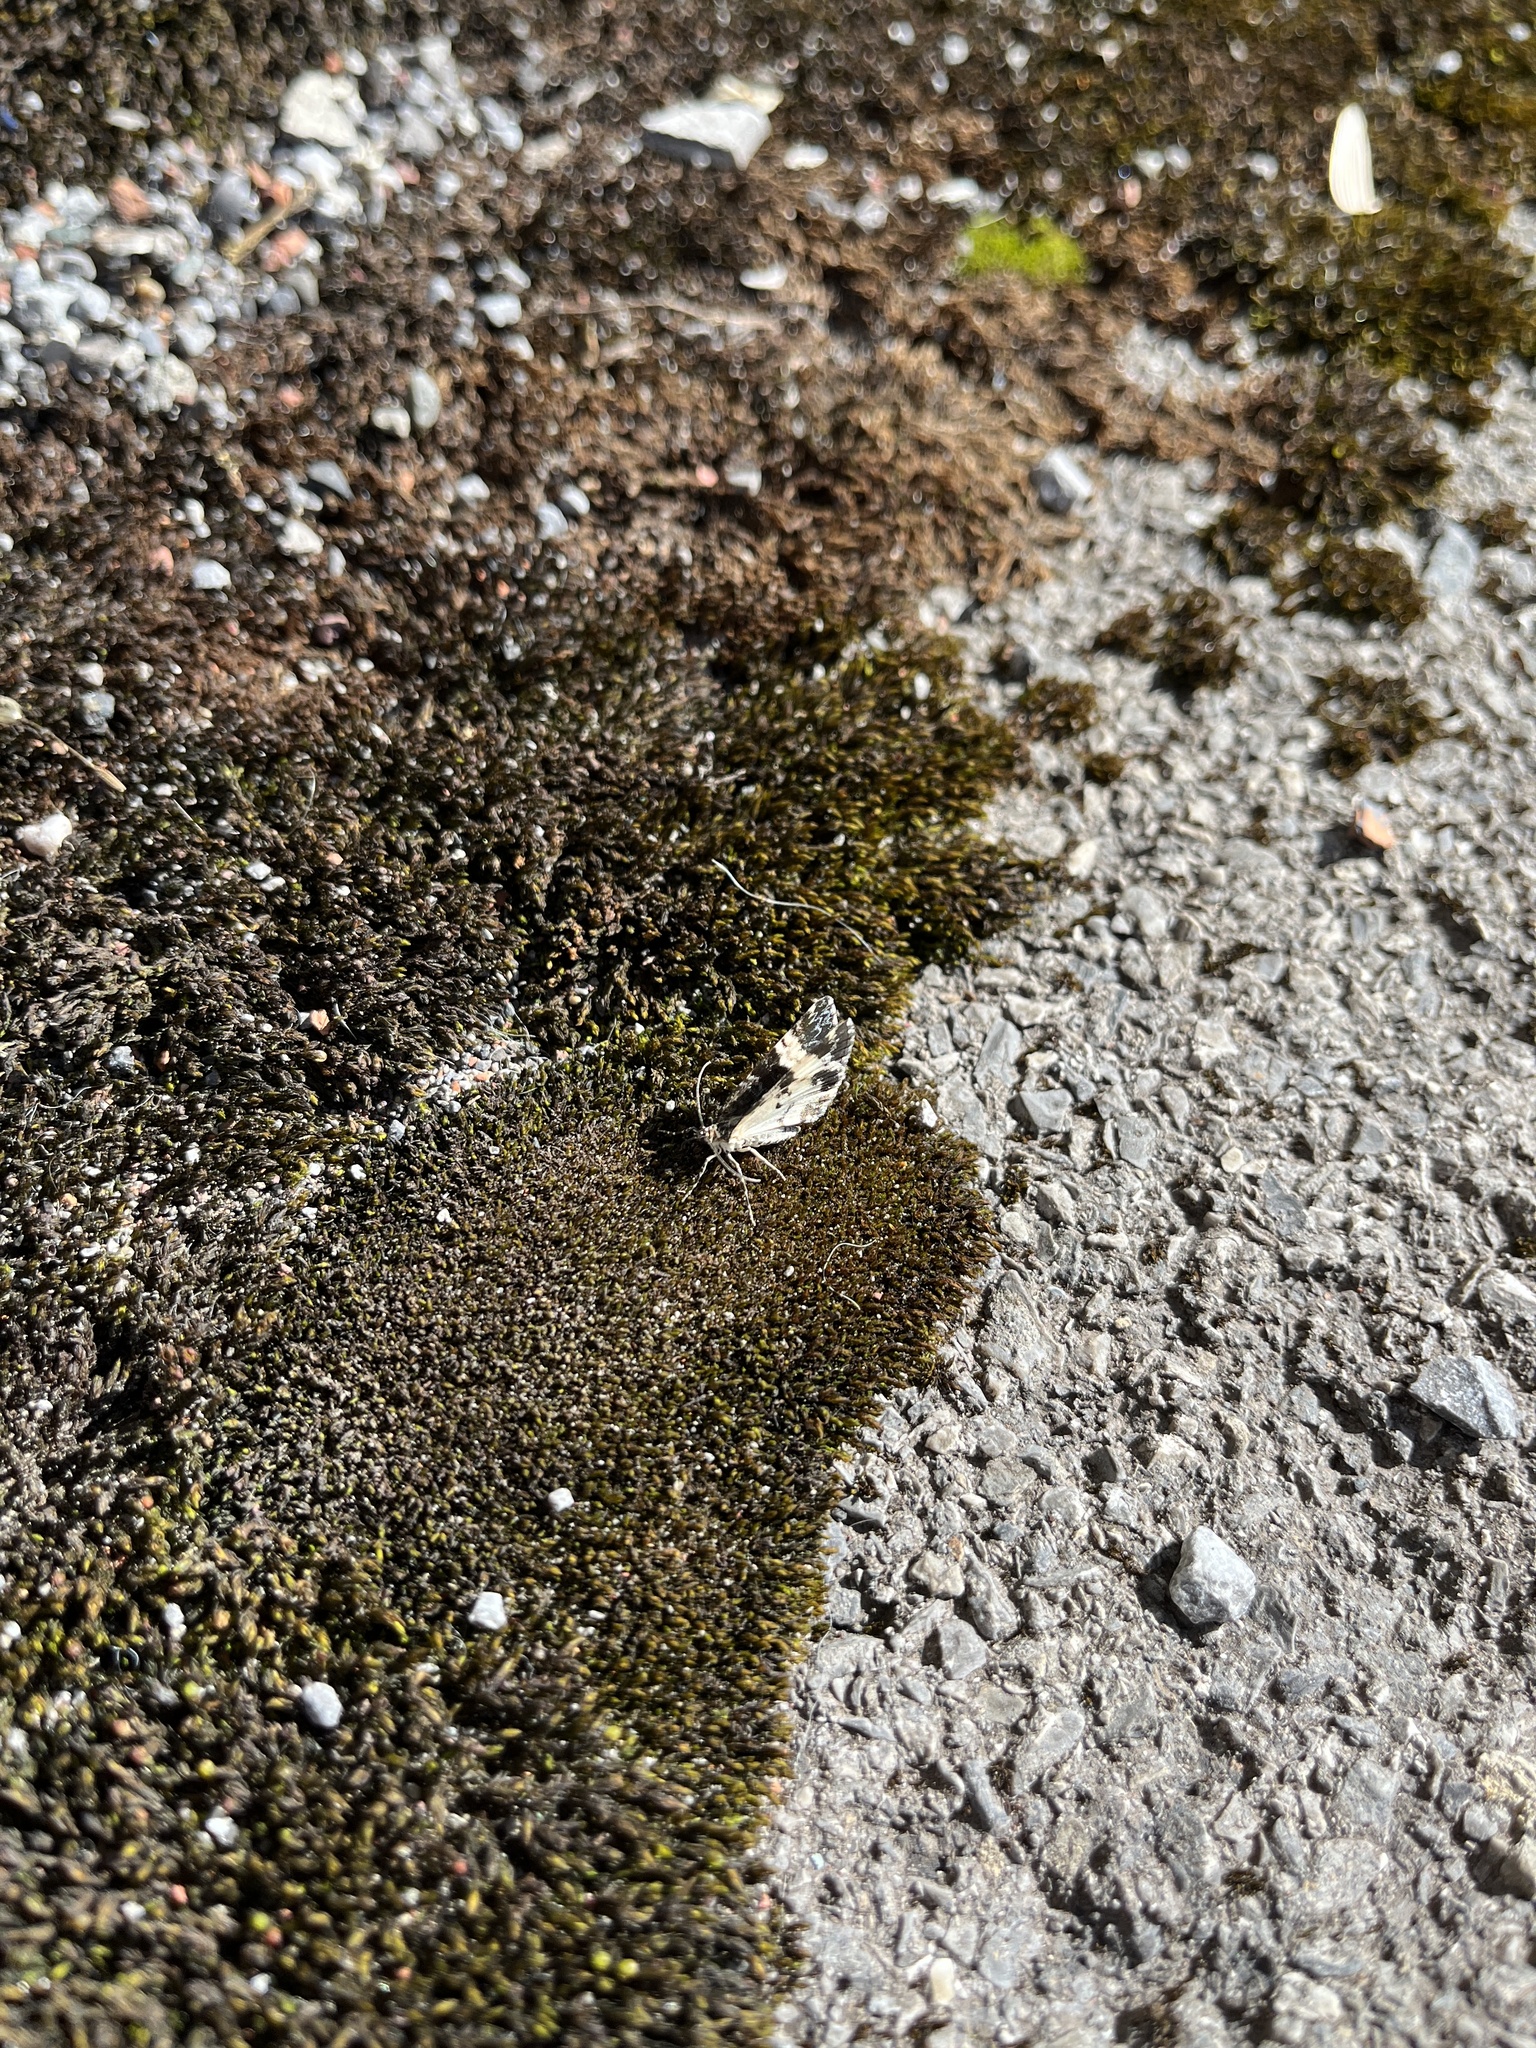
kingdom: Animalia
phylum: Arthropoda
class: Insecta
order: Lepidoptera
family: Geometridae
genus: Spargania
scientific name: Spargania luctuata
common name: White-banded carpet
